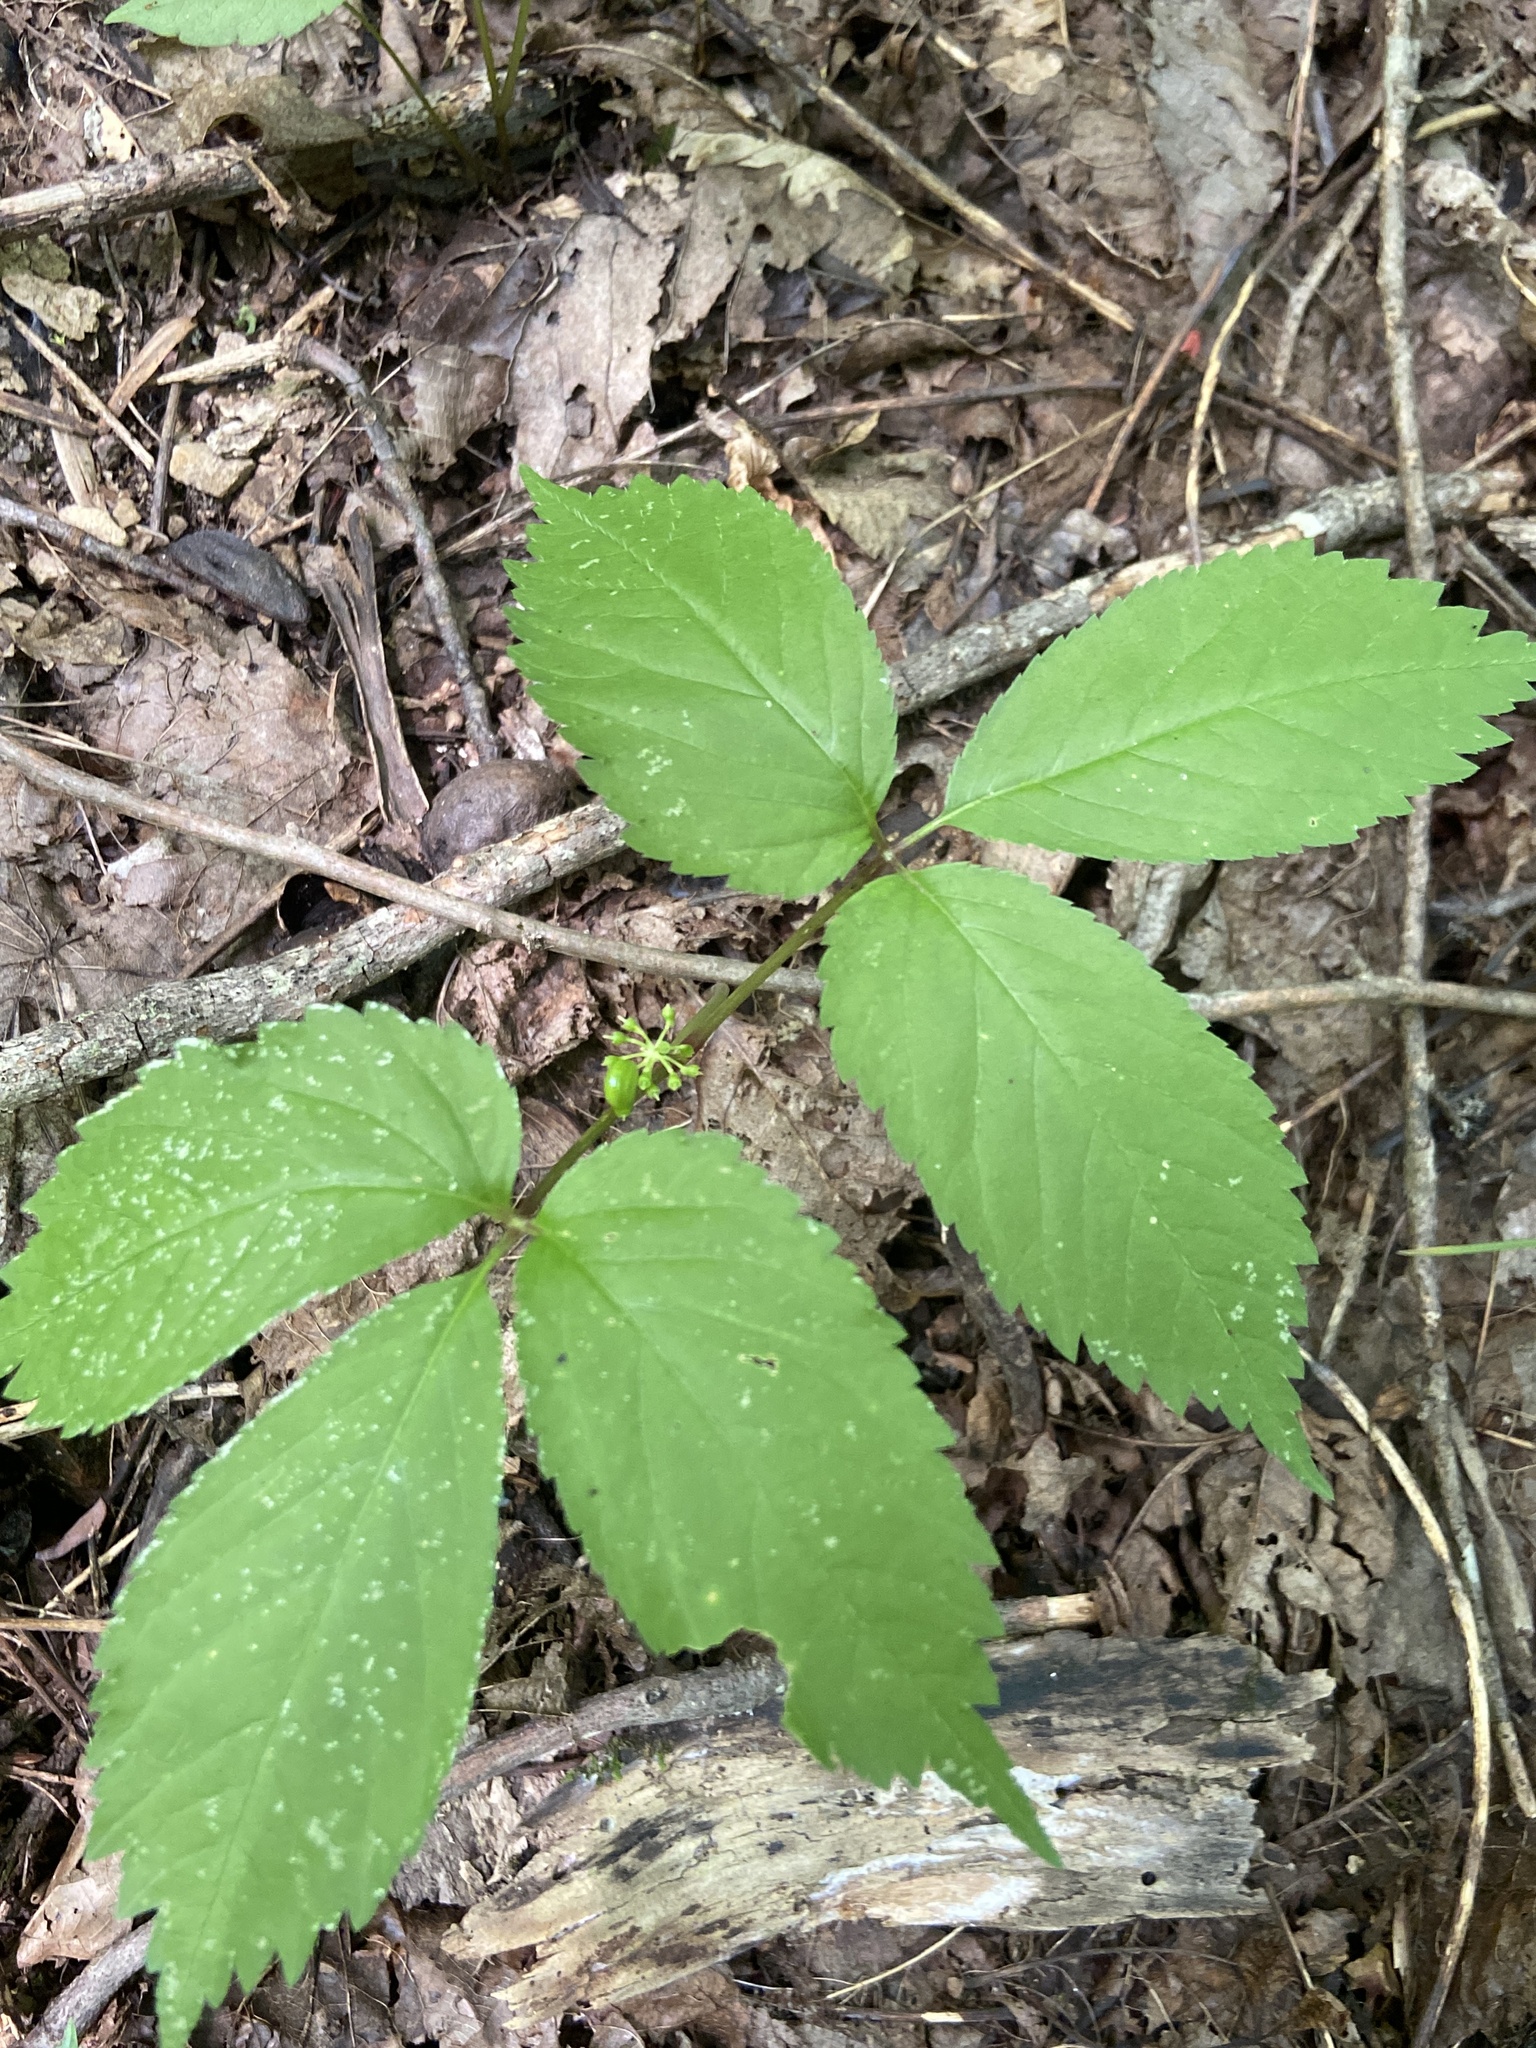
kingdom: Plantae
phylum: Tracheophyta
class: Magnoliopsida
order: Apiales
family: Araliaceae
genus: Panax
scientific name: Panax quinquefolius
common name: American ginseng
